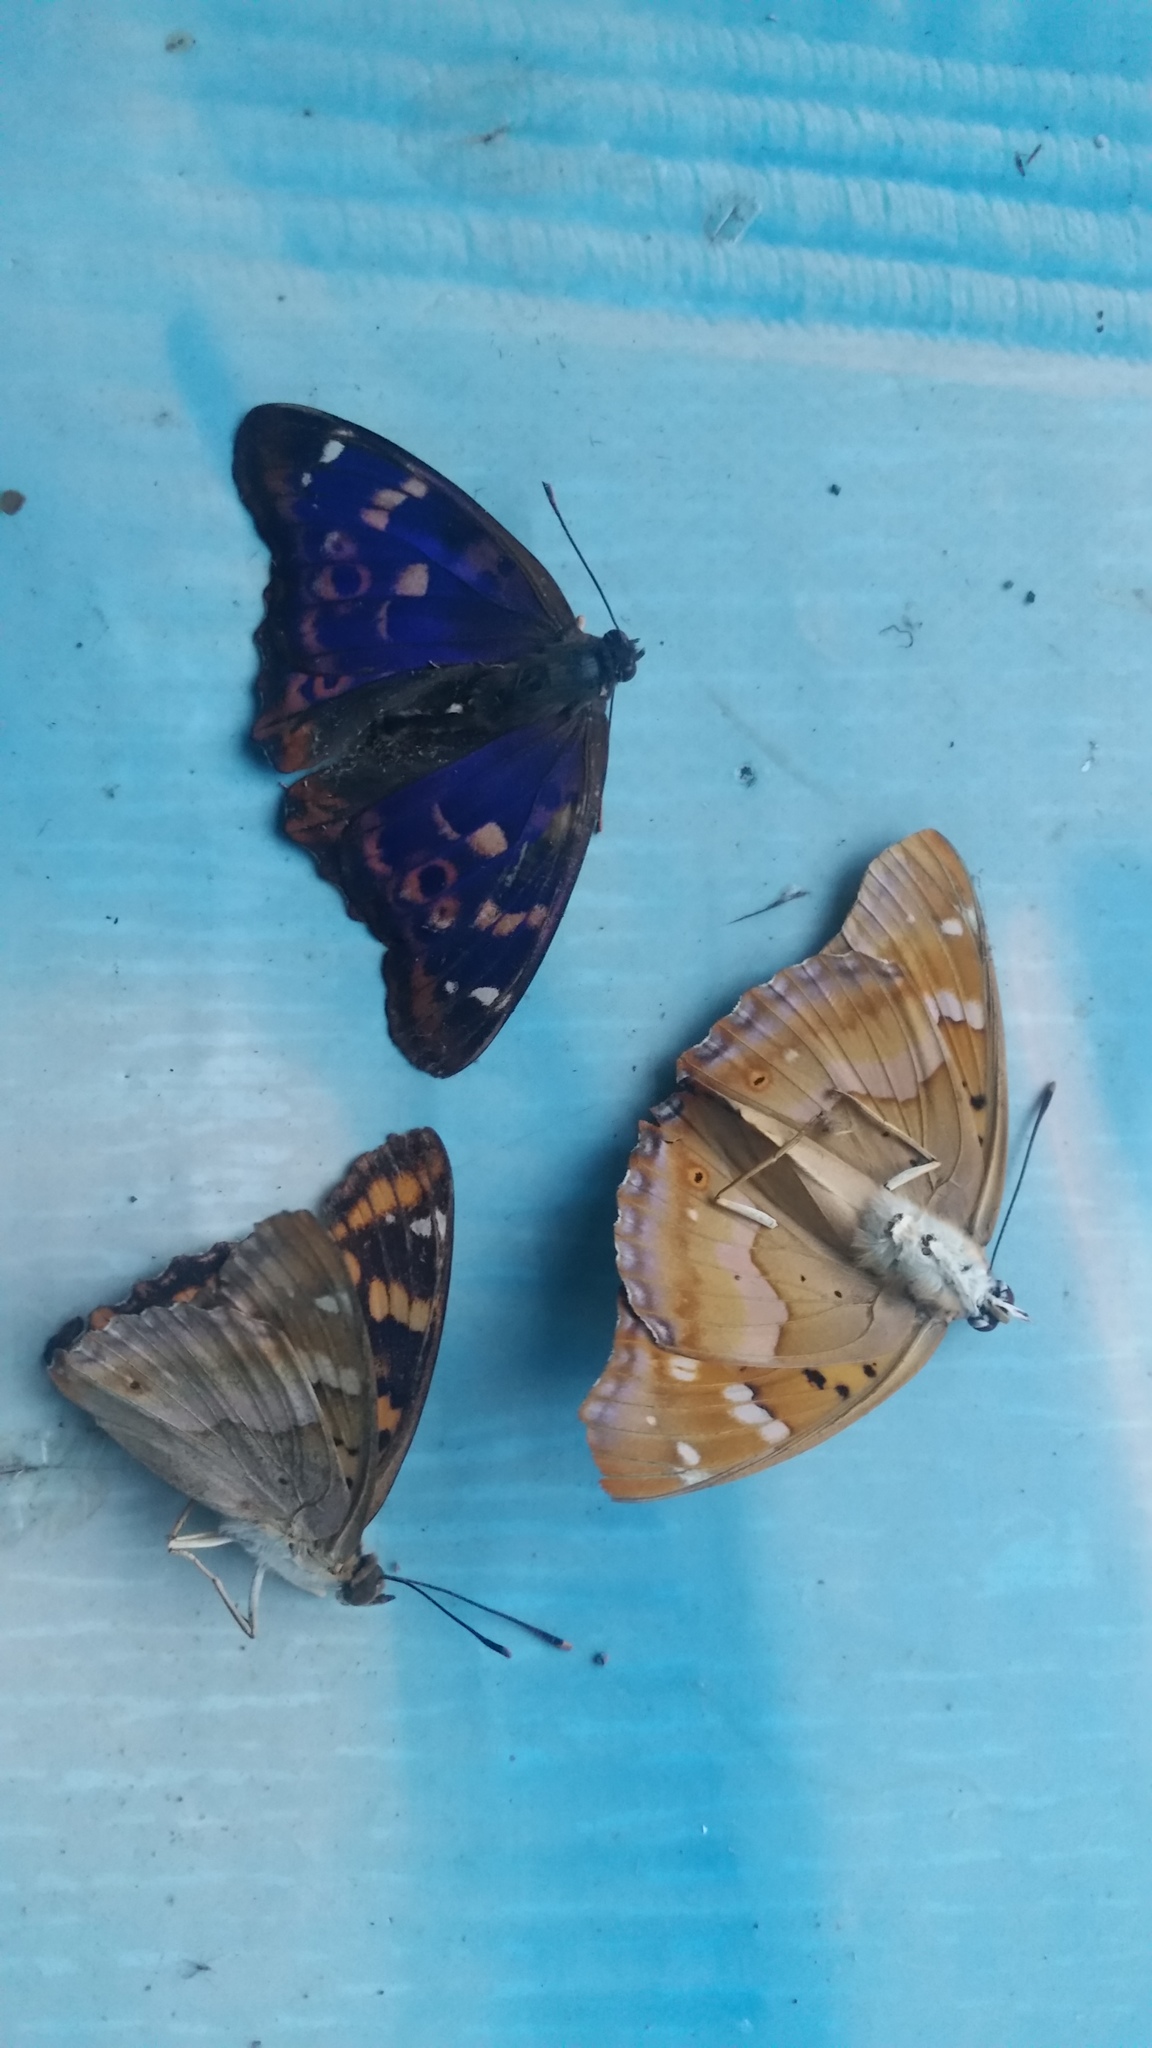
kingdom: Animalia
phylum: Arthropoda
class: Insecta
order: Lepidoptera
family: Nymphalidae
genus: Apatura
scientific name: Apatura ilia
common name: Lesser purple emperor
